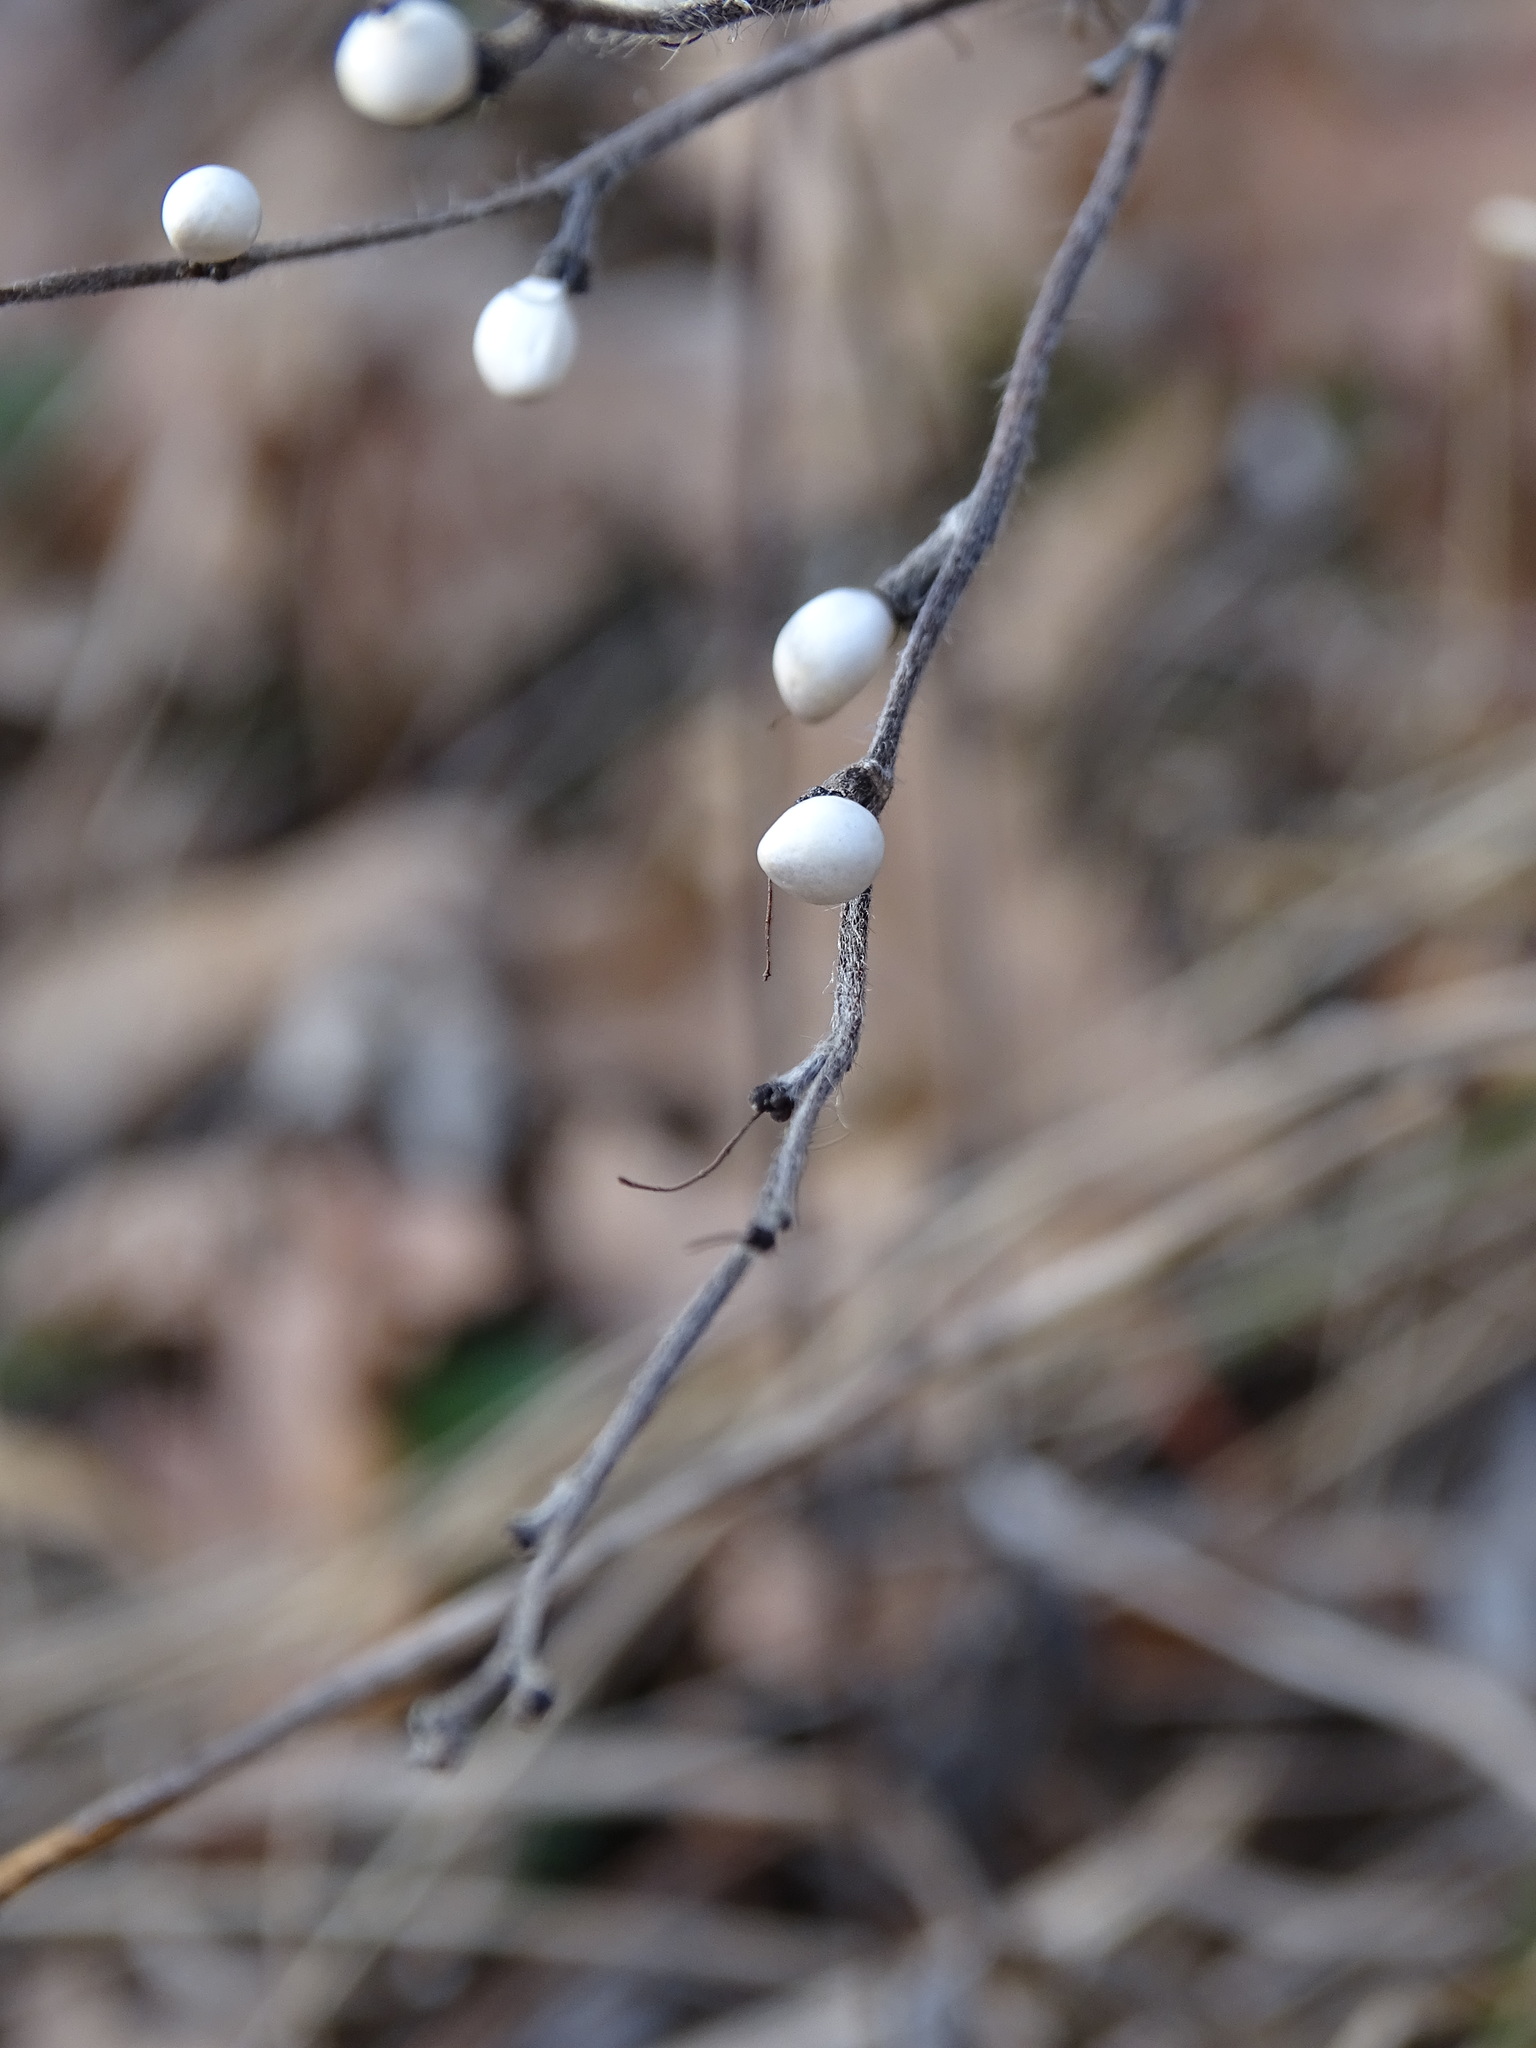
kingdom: Plantae
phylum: Tracheophyta
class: Magnoliopsida
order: Boraginales
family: Boraginaceae
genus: Aegonychon
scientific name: Aegonychon purpurocaeruleum
